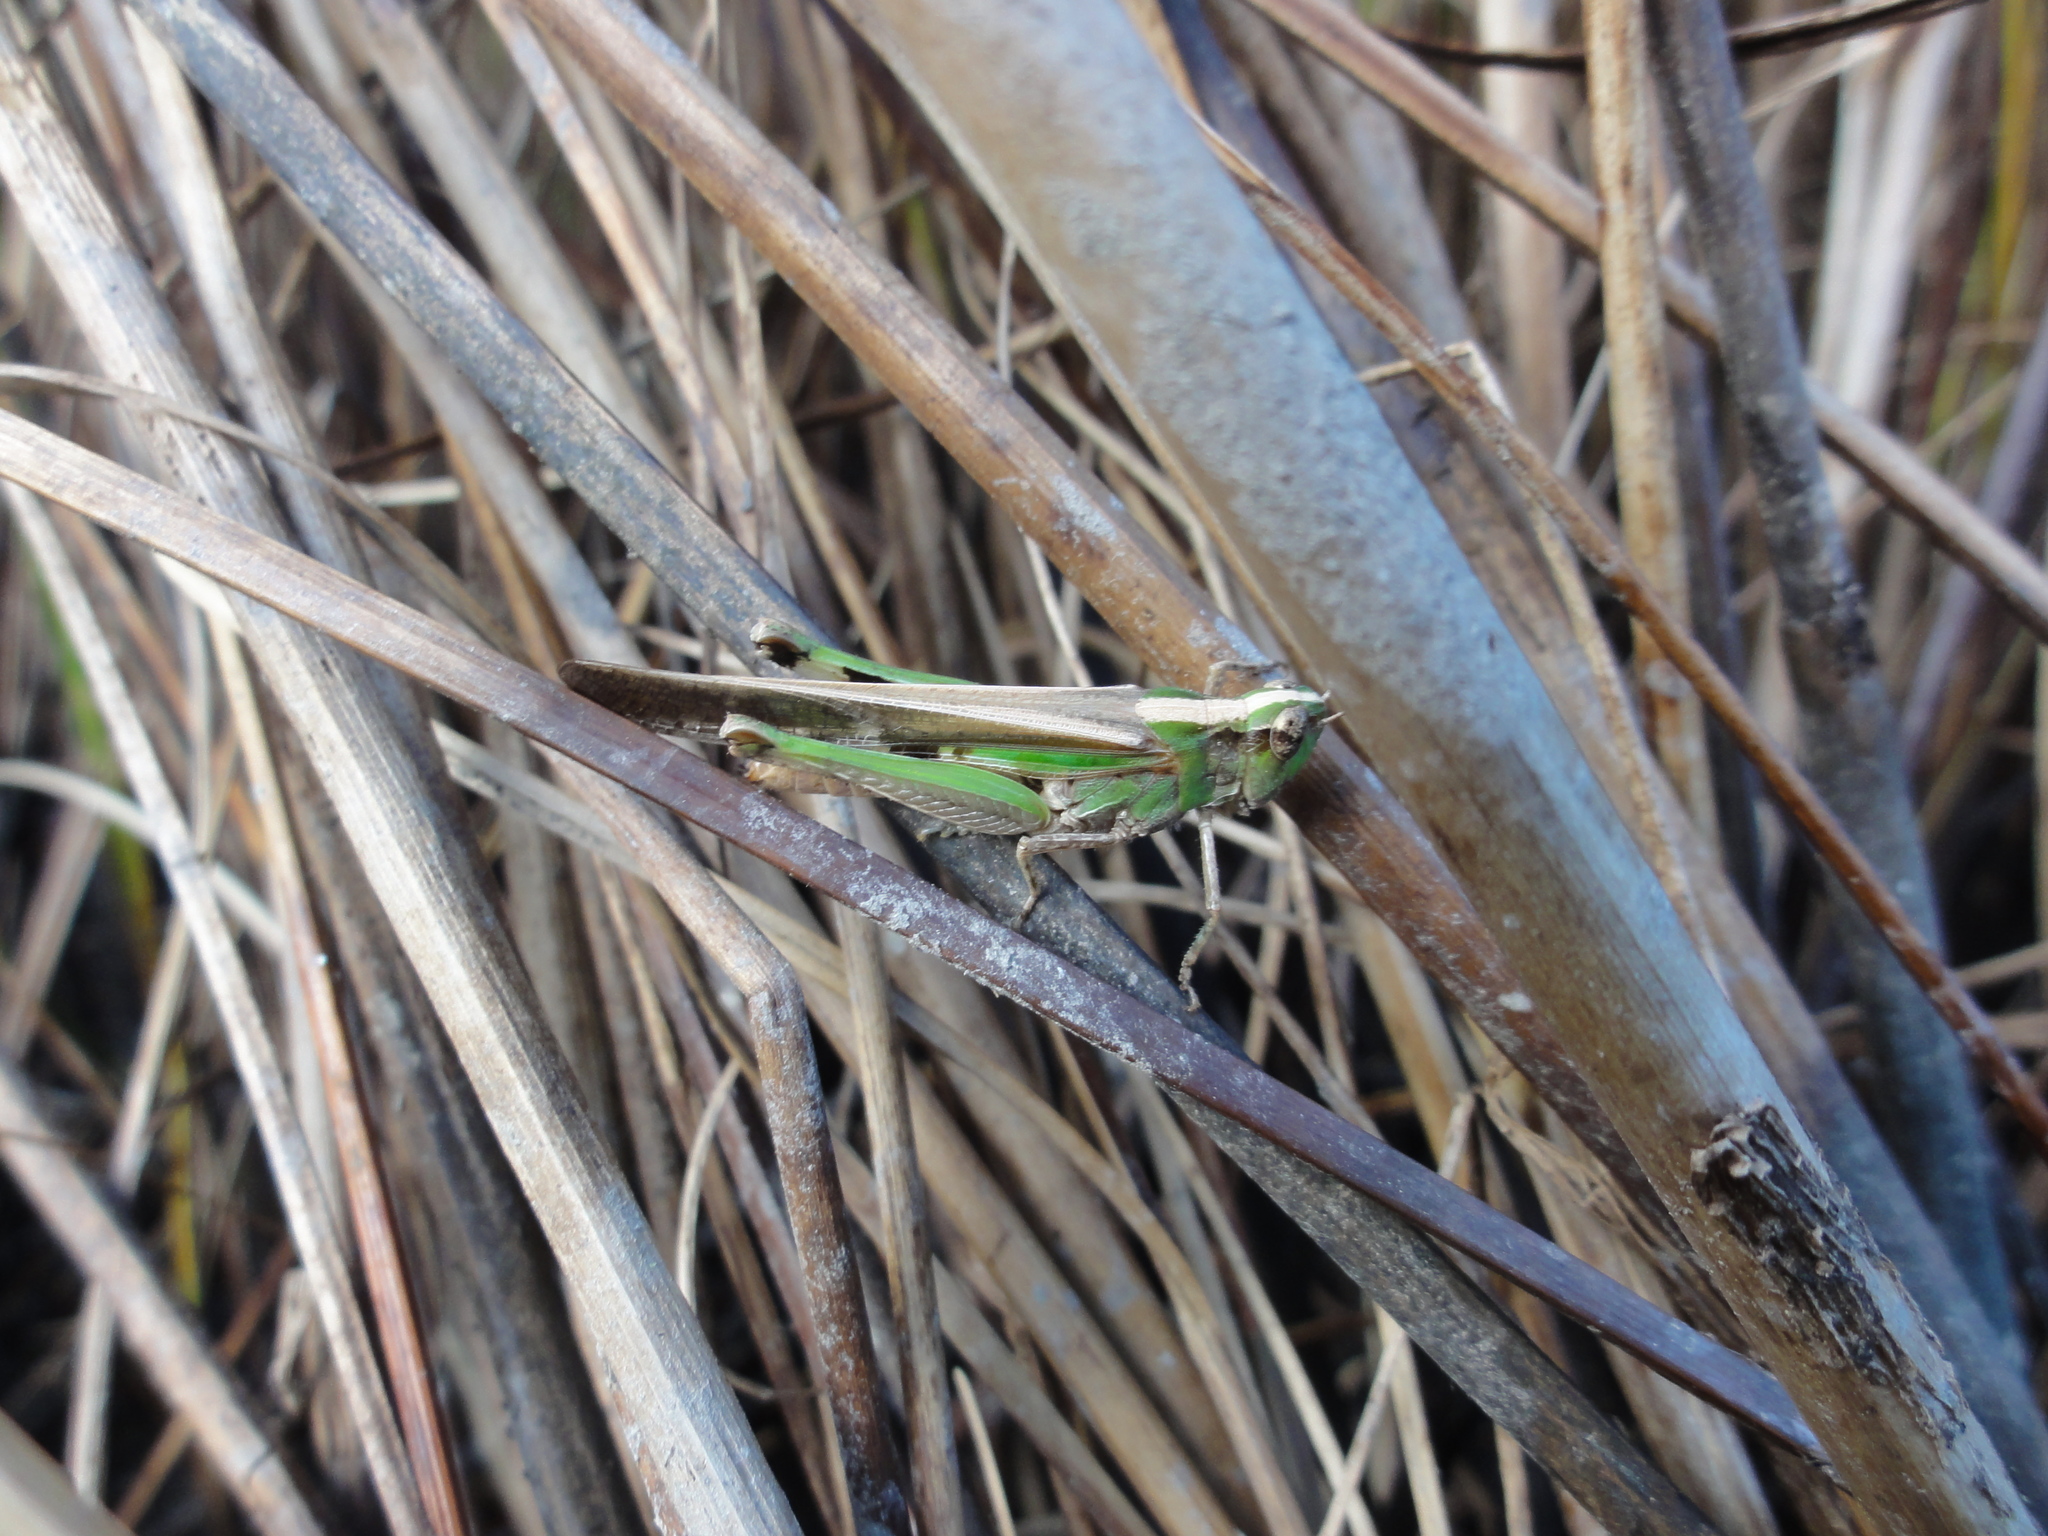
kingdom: Animalia
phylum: Arthropoda
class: Insecta
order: Orthoptera
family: Acrididae
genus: Aiolopus
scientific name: Aiolopus puissanti
